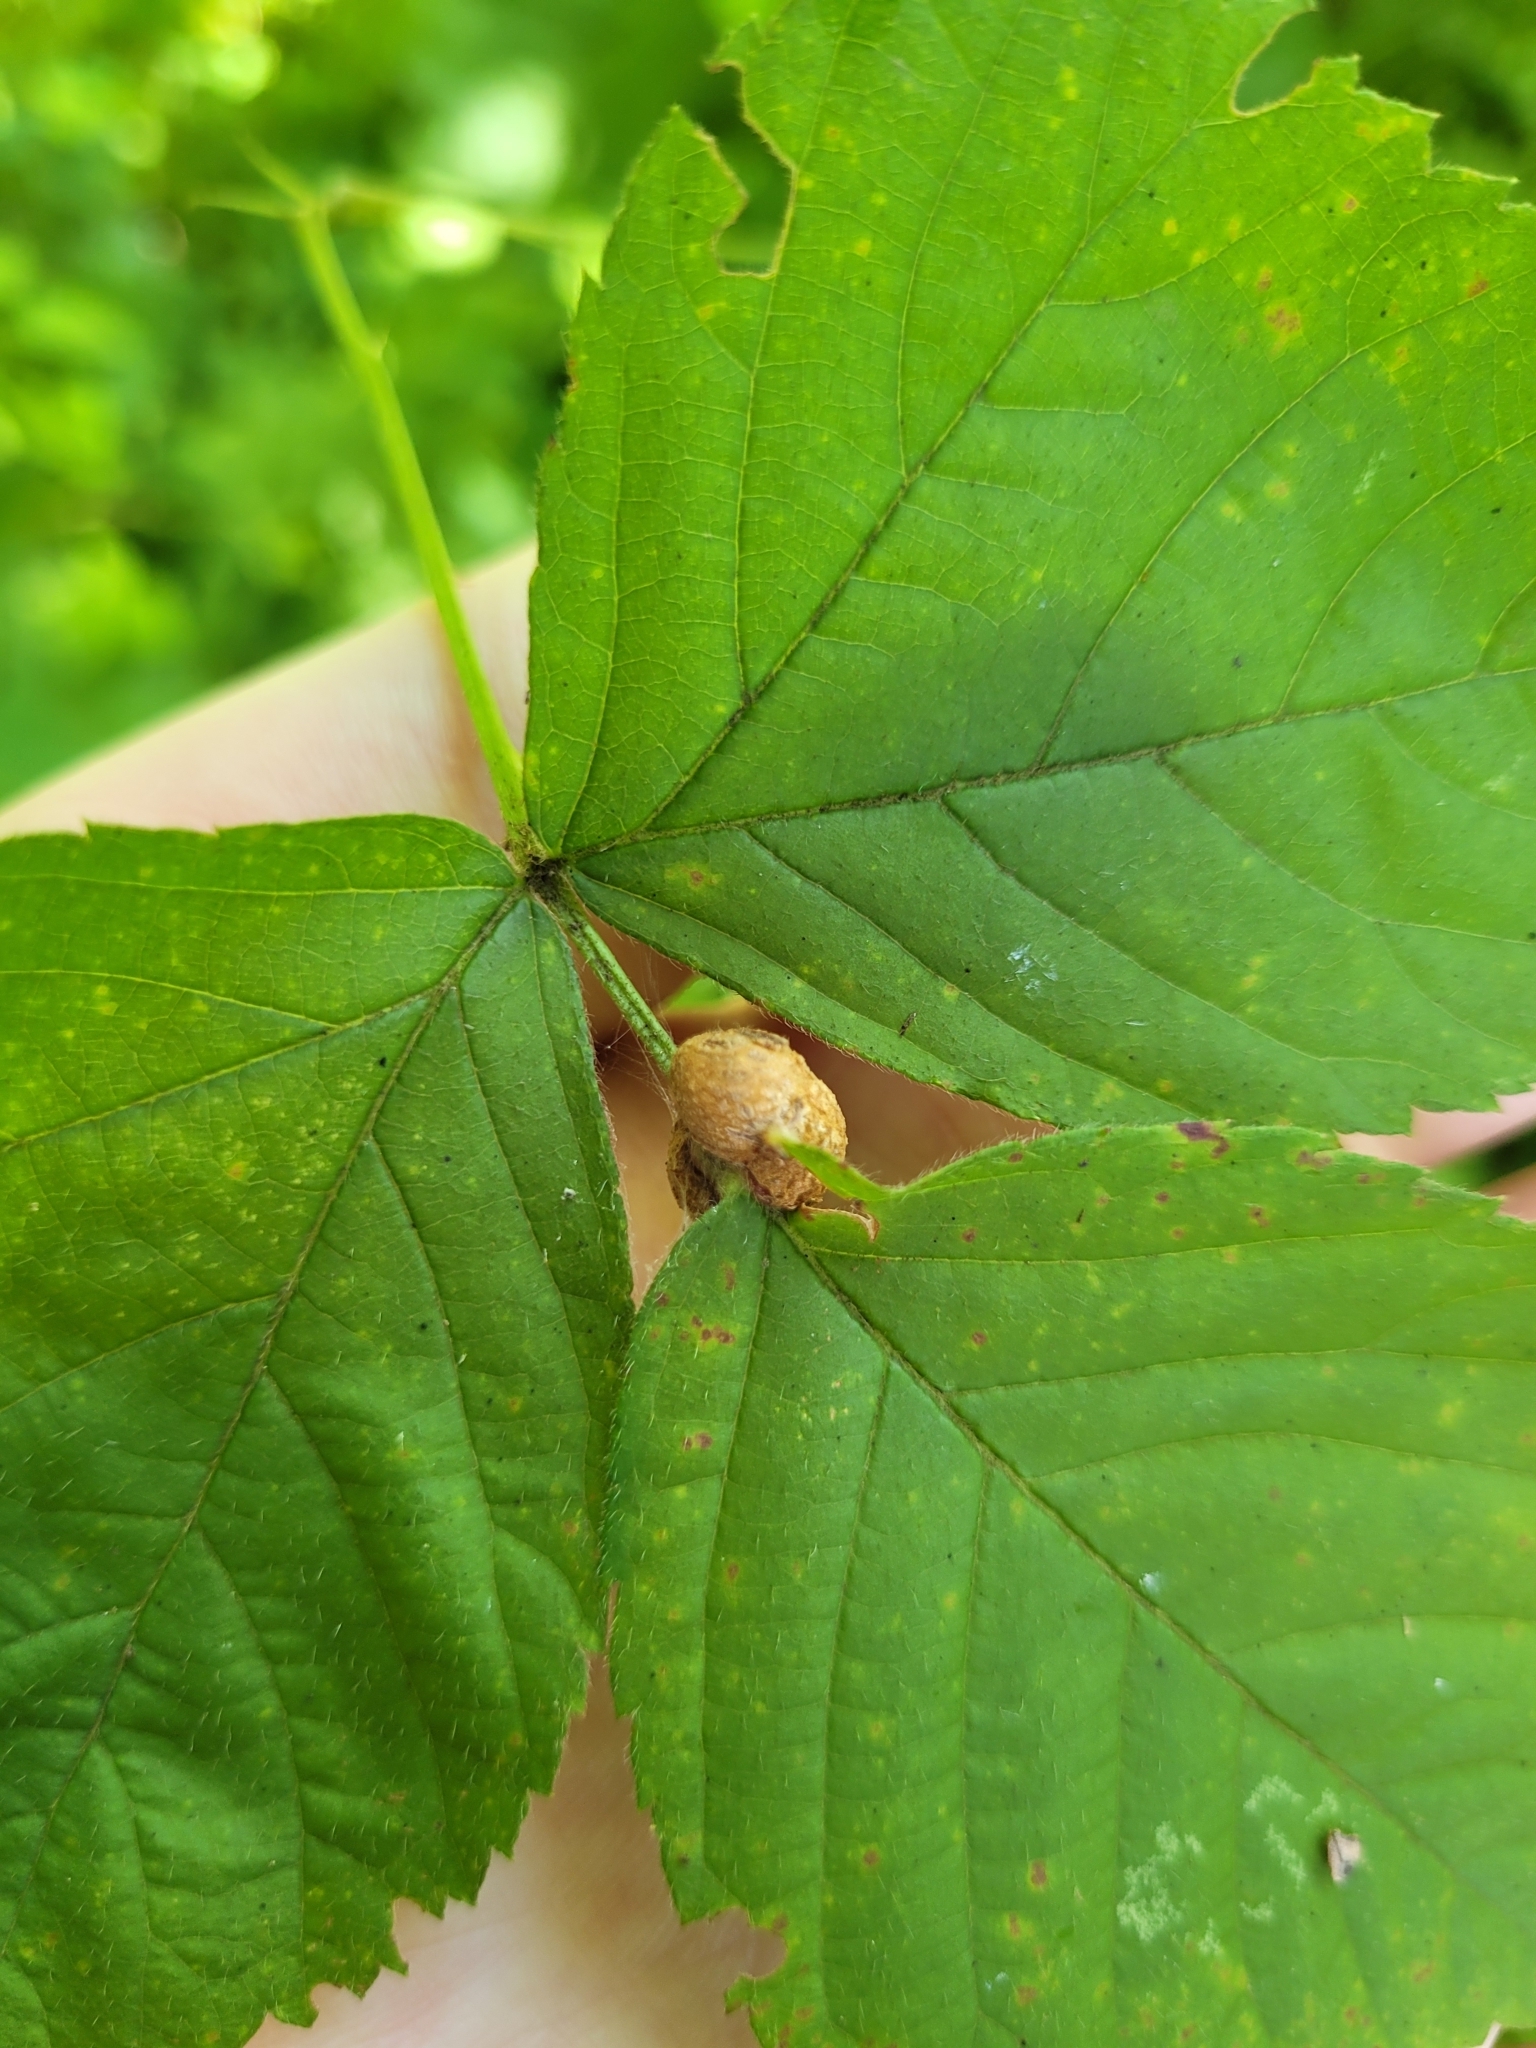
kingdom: Animalia
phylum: Arthropoda
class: Insecta
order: Diptera
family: Cecidomyiidae
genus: Neolasioptera
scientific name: Neolasioptera farinosa
